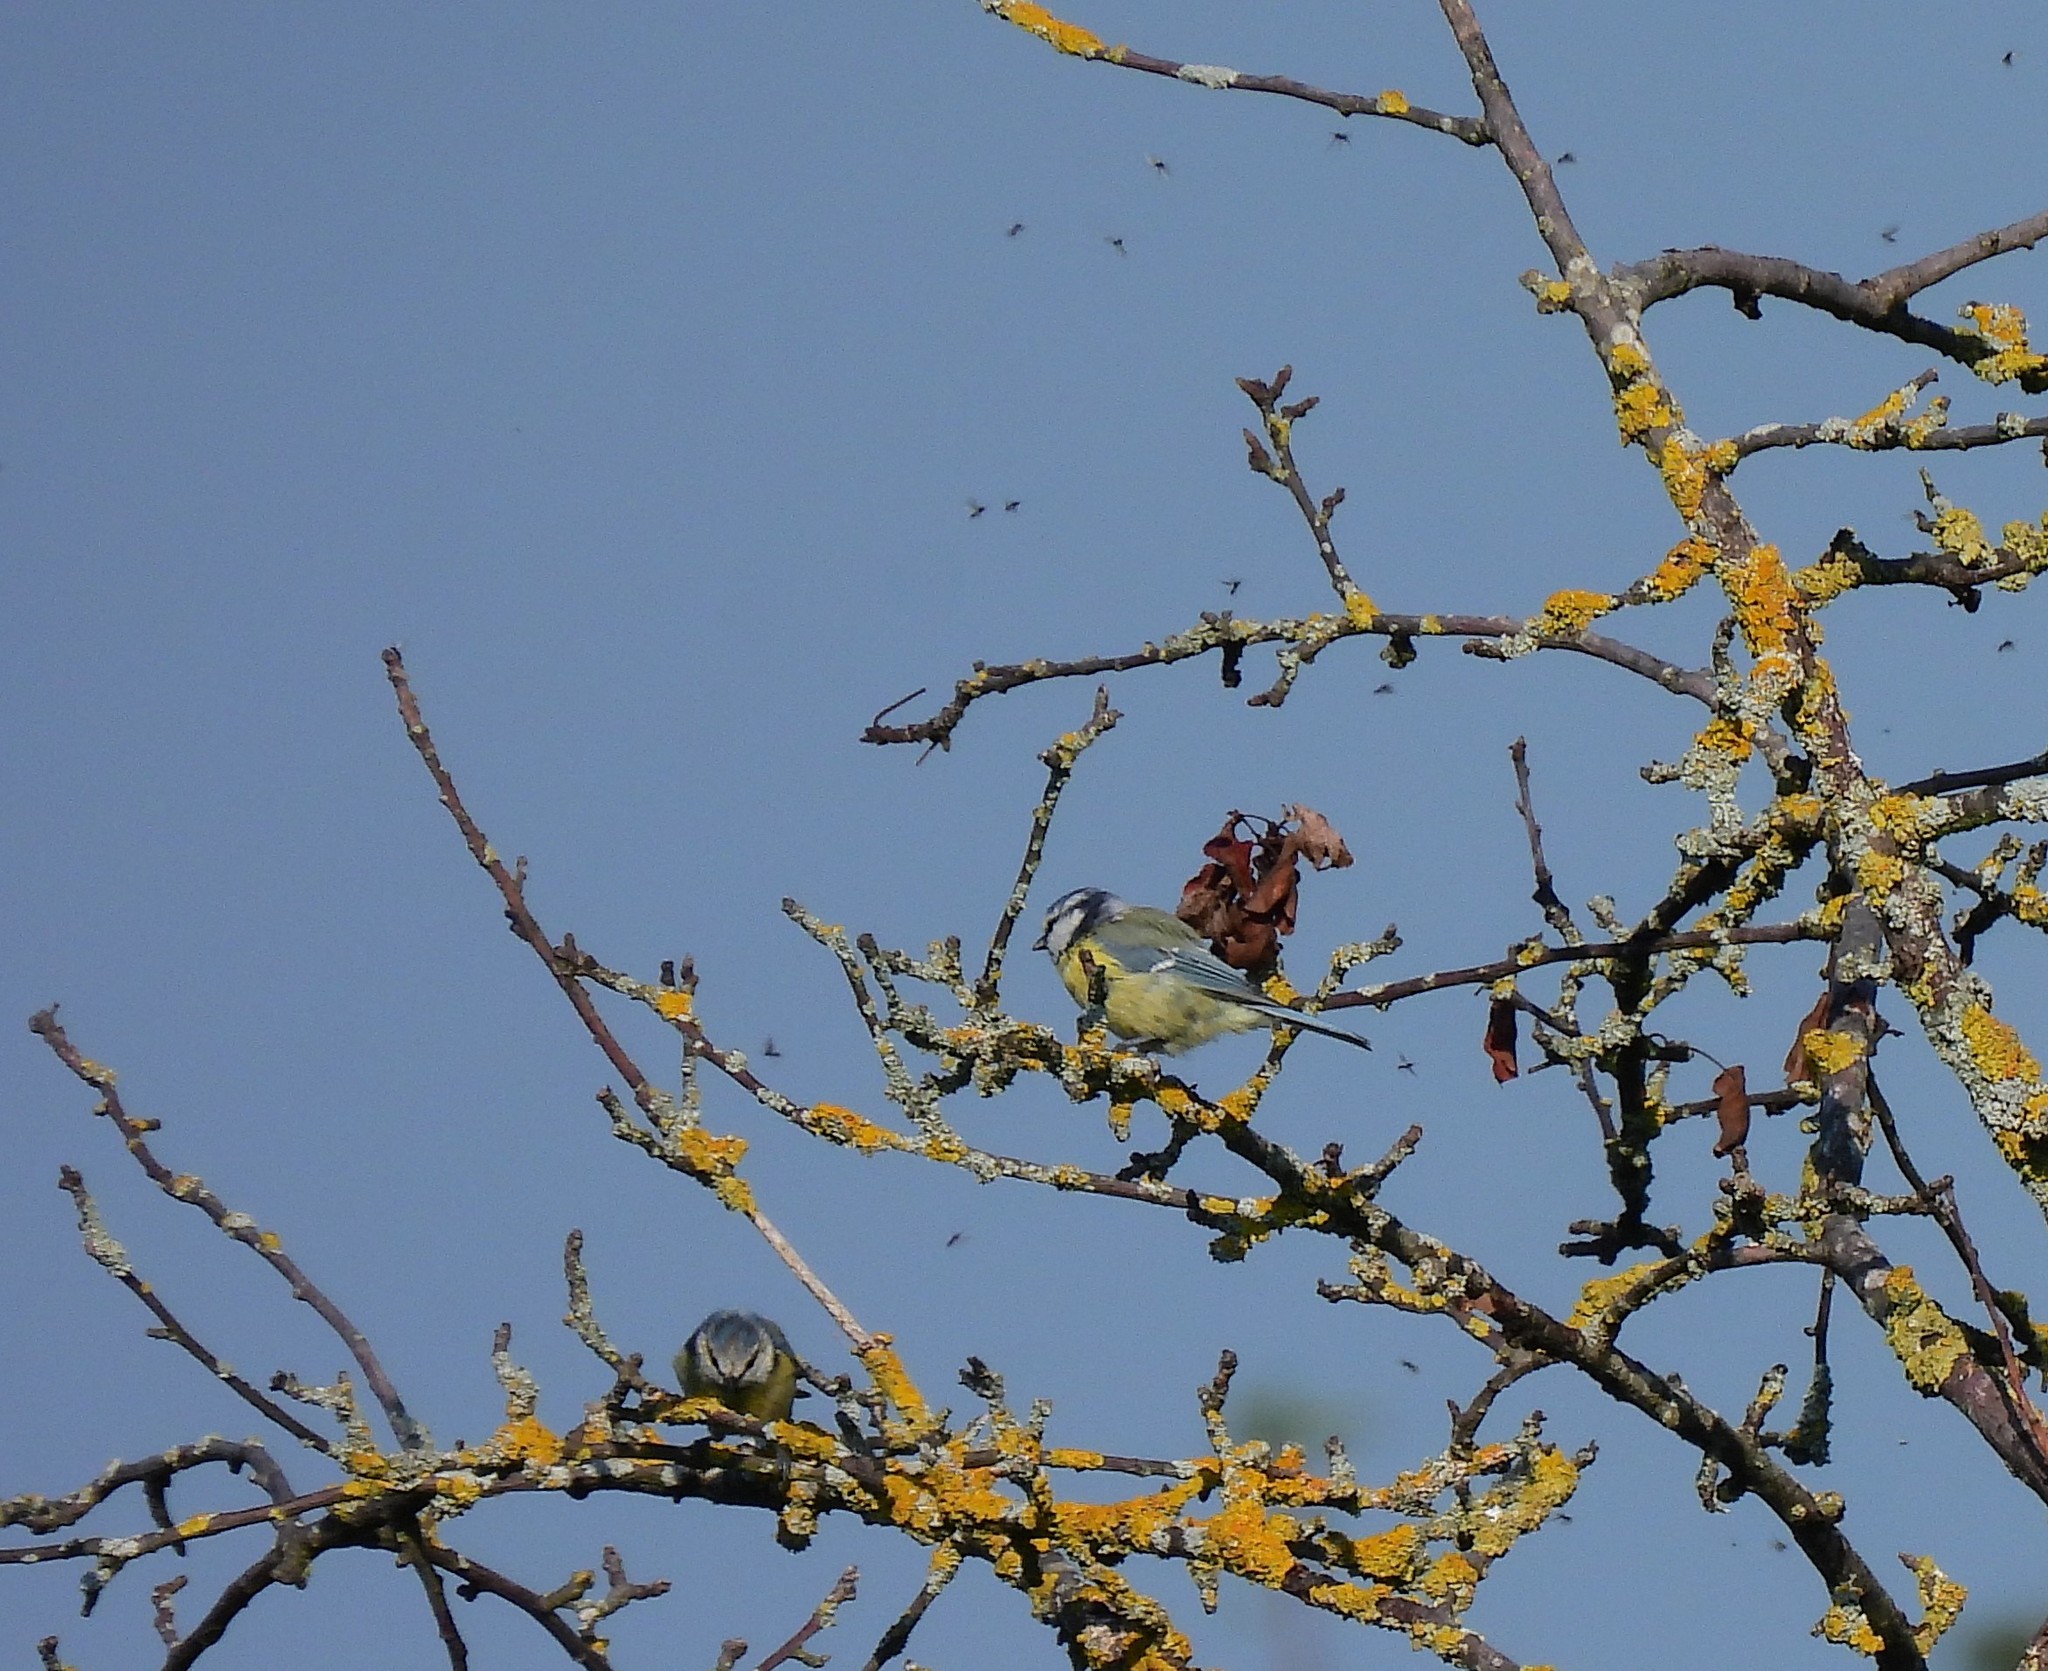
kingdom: Animalia
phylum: Chordata
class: Aves
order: Passeriformes
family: Paridae
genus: Cyanistes
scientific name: Cyanistes caeruleus
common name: Eurasian blue tit
